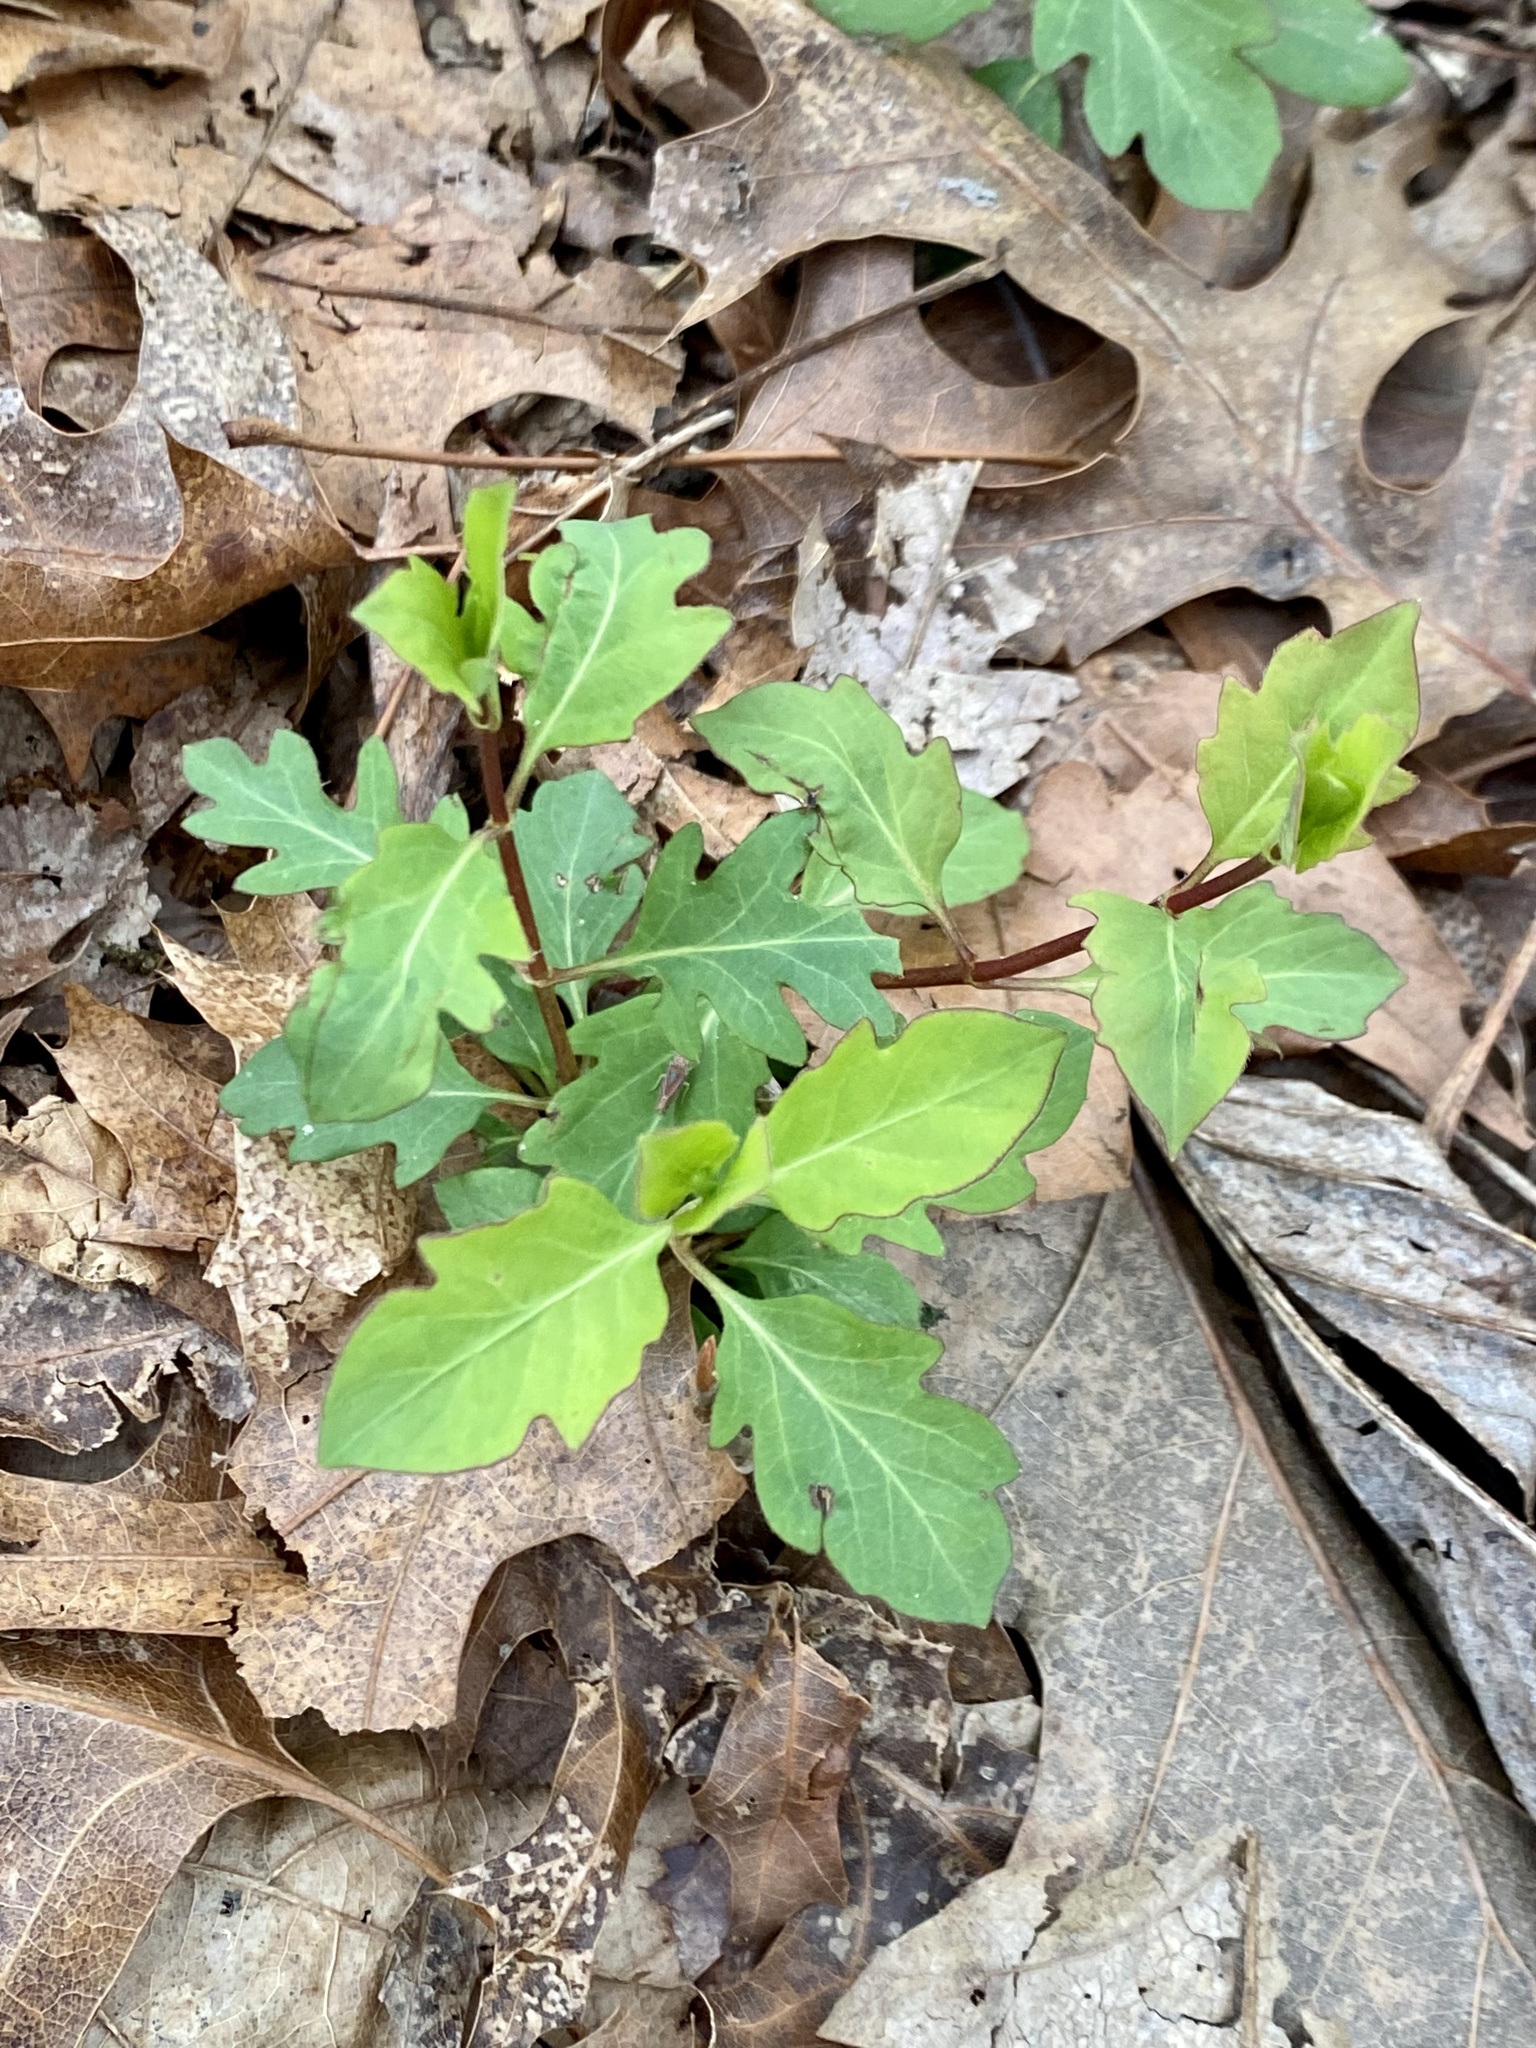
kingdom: Plantae
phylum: Tracheophyta
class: Magnoliopsida
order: Dipsacales
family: Caprifoliaceae
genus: Lonicera
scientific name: Lonicera japonica
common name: Japanese honeysuckle
